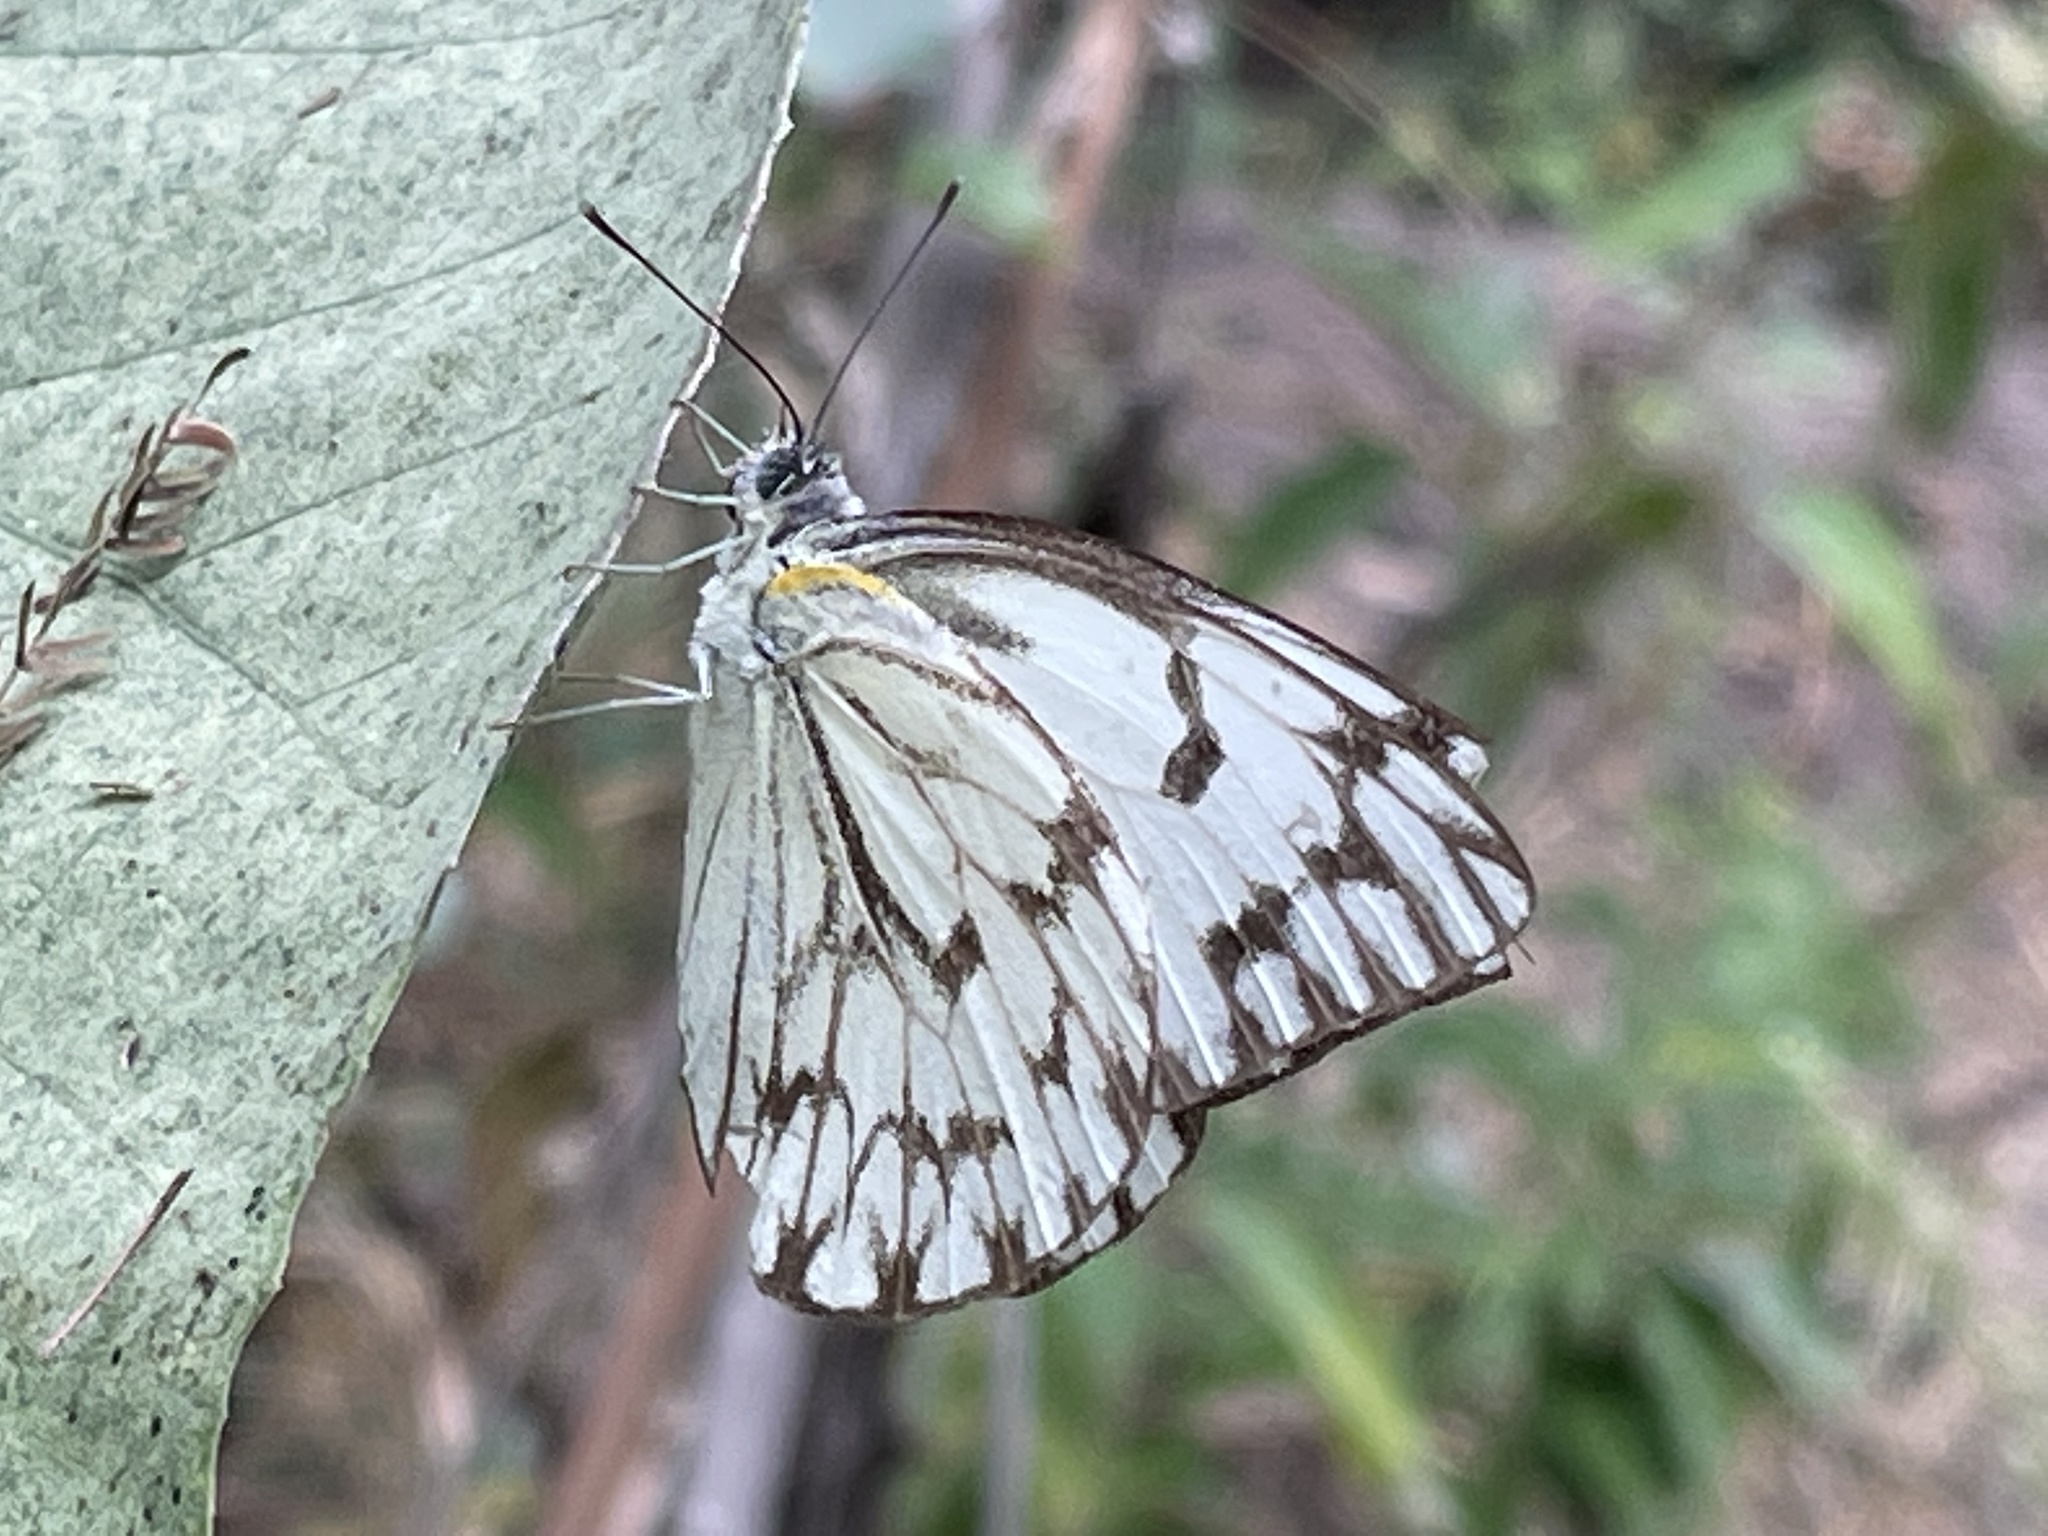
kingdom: Animalia
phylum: Arthropoda
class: Insecta
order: Lepidoptera
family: Pieridae
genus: Belenois
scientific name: Belenois gidica
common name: Pointed caper white
